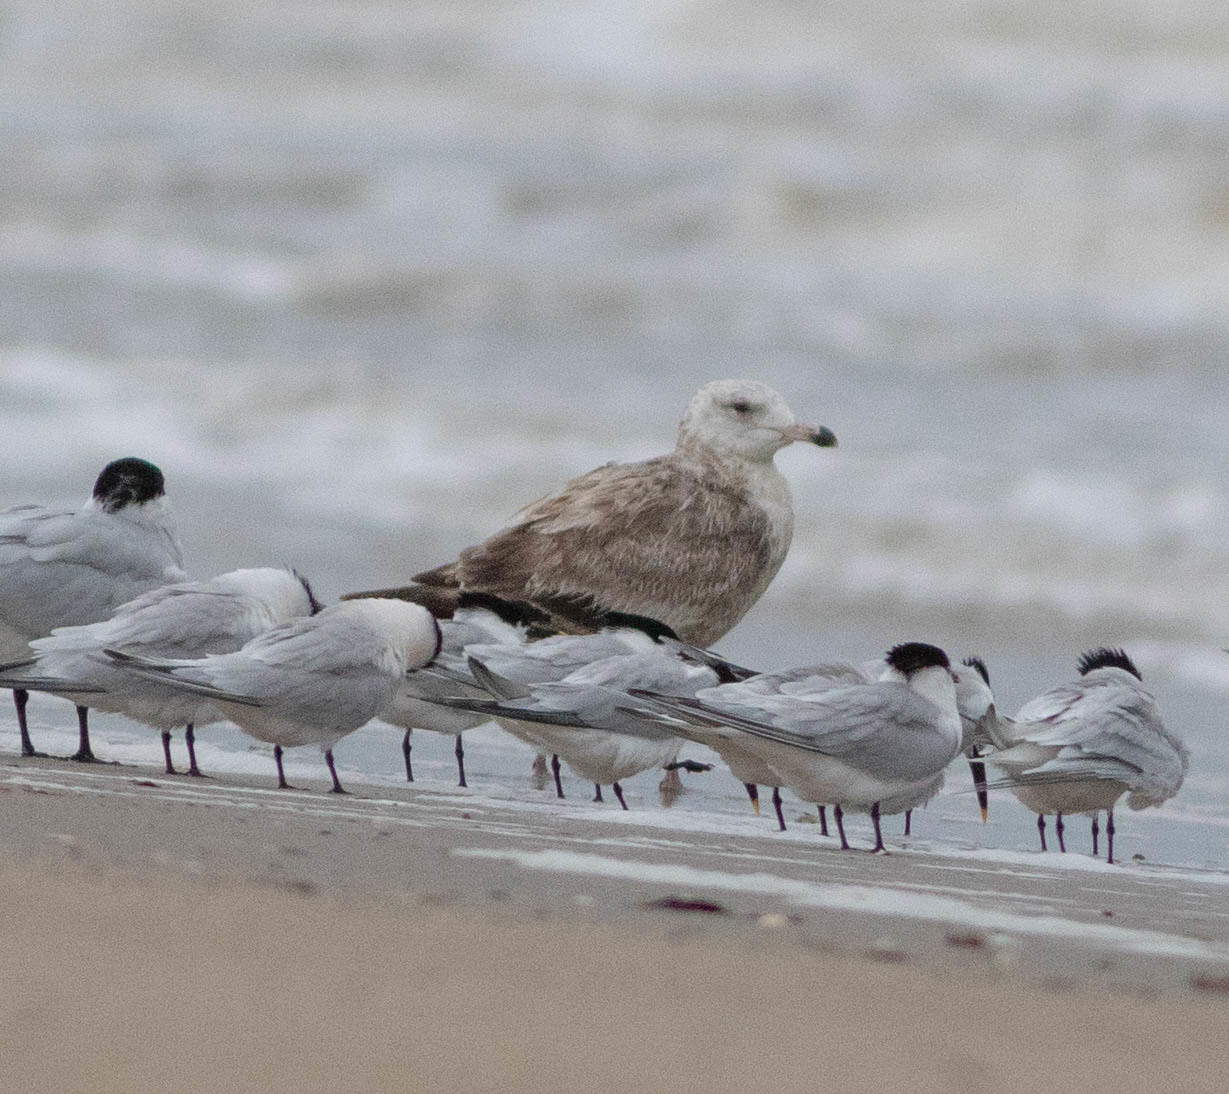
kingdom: Animalia
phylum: Chordata
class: Aves
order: Charadriiformes
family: Laridae
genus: Larus
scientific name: Larus argentatus
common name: Herring gull
